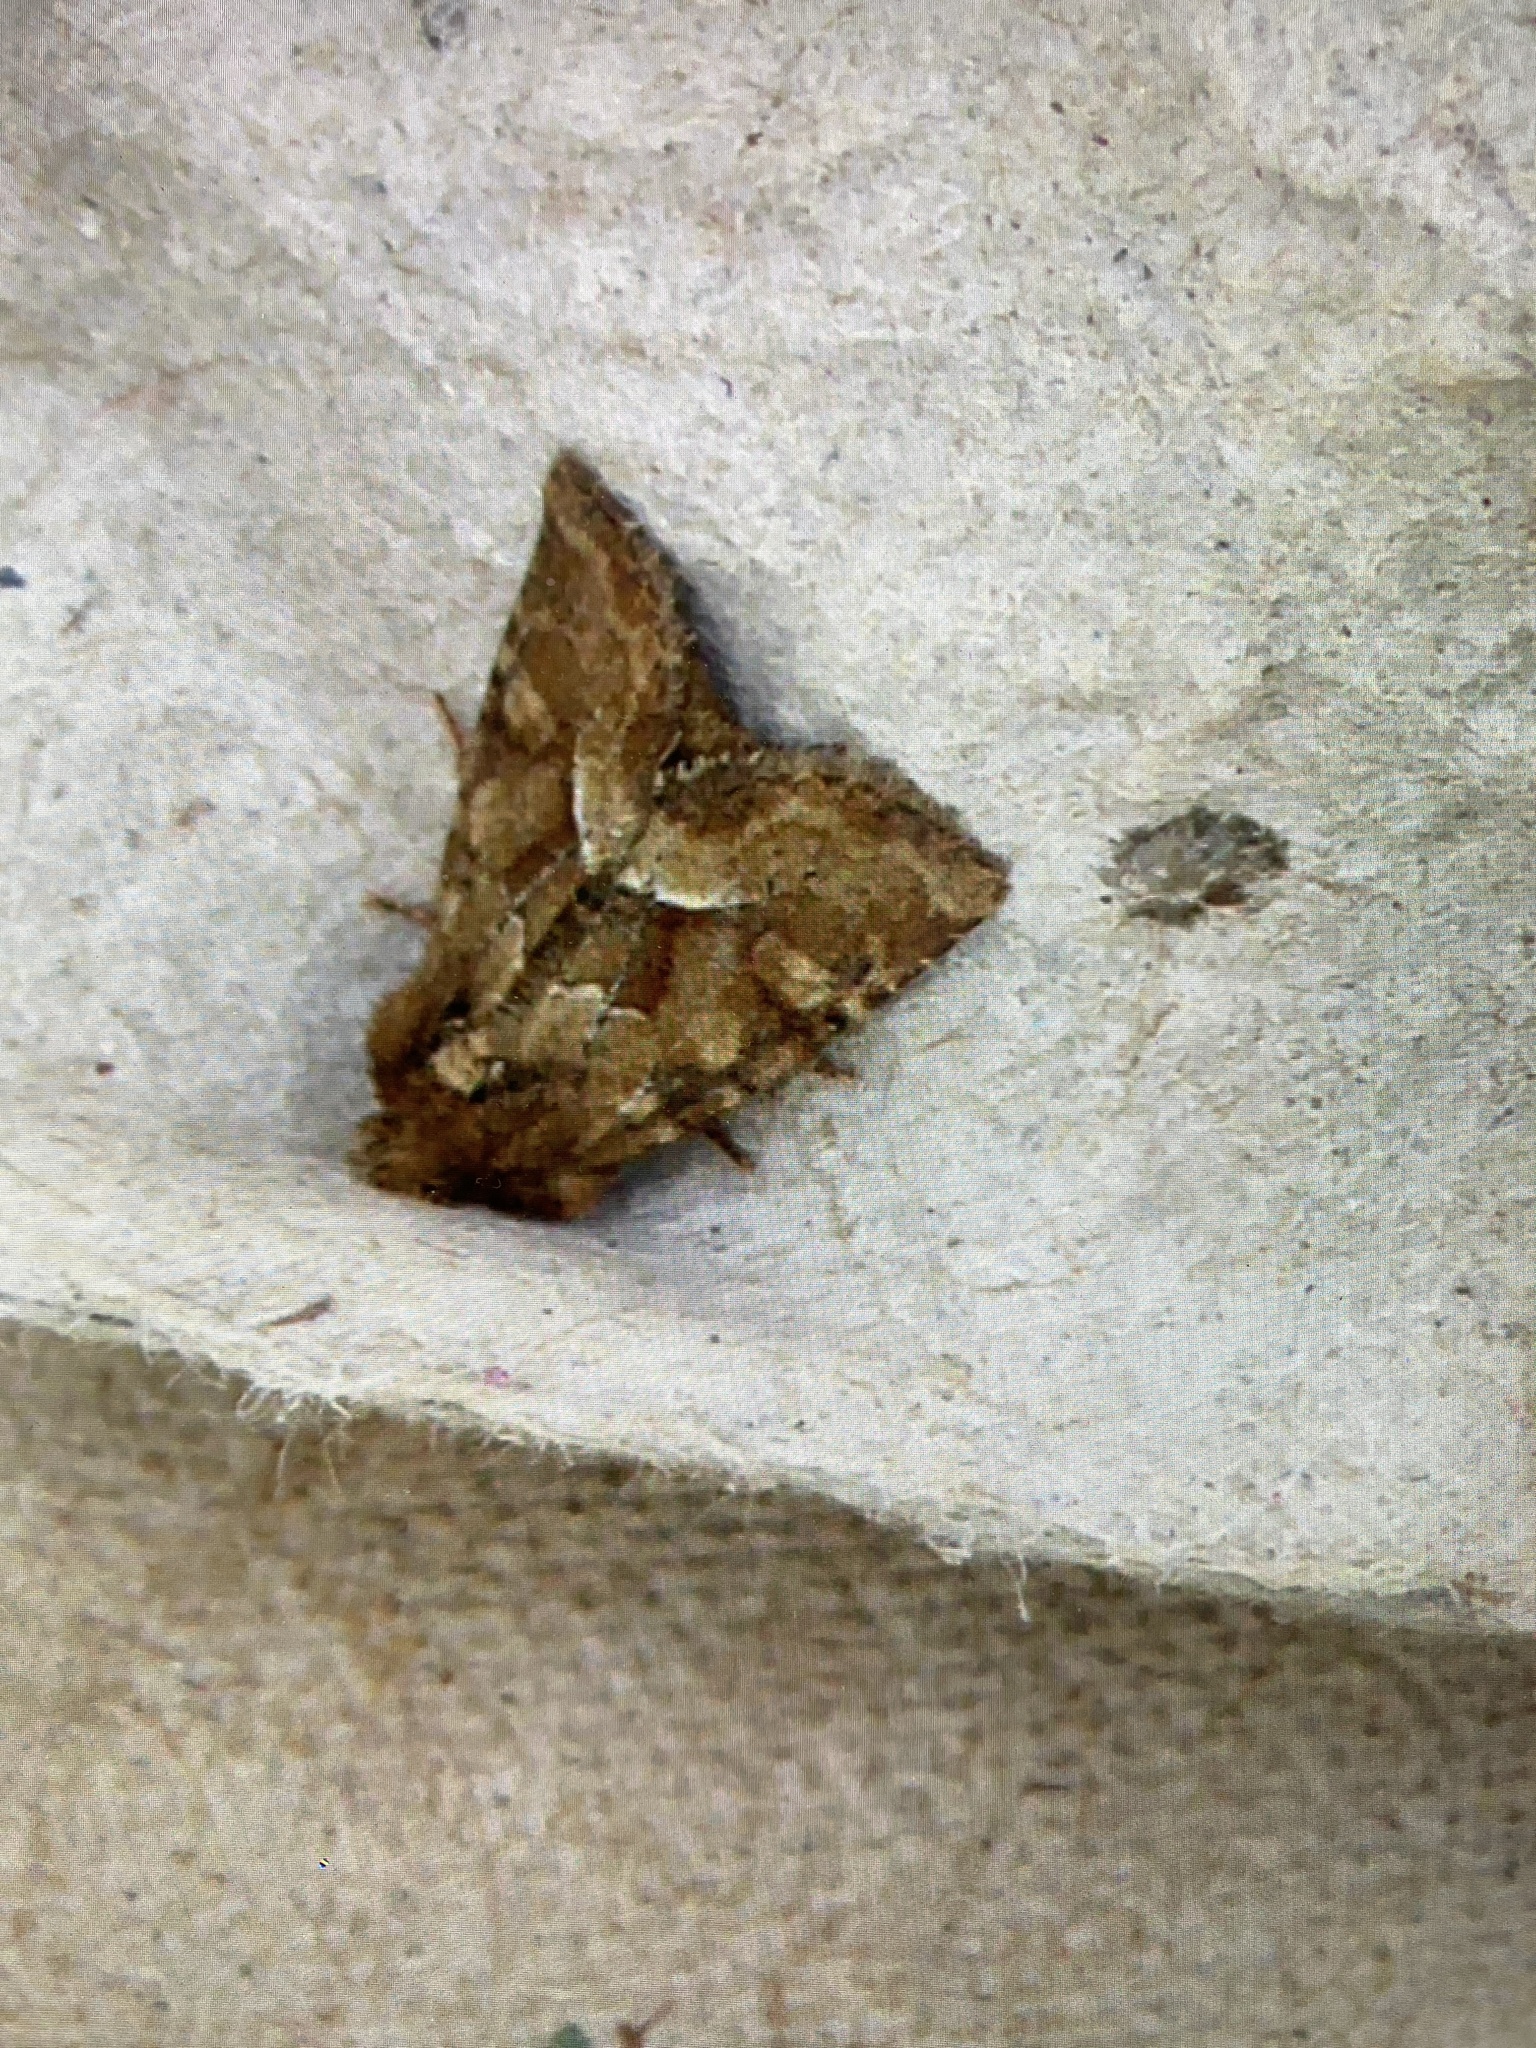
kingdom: Animalia
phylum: Arthropoda
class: Insecta
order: Lepidoptera
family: Noctuidae
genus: Oligia
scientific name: Oligia fasciuncula
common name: Middle-barred minor
